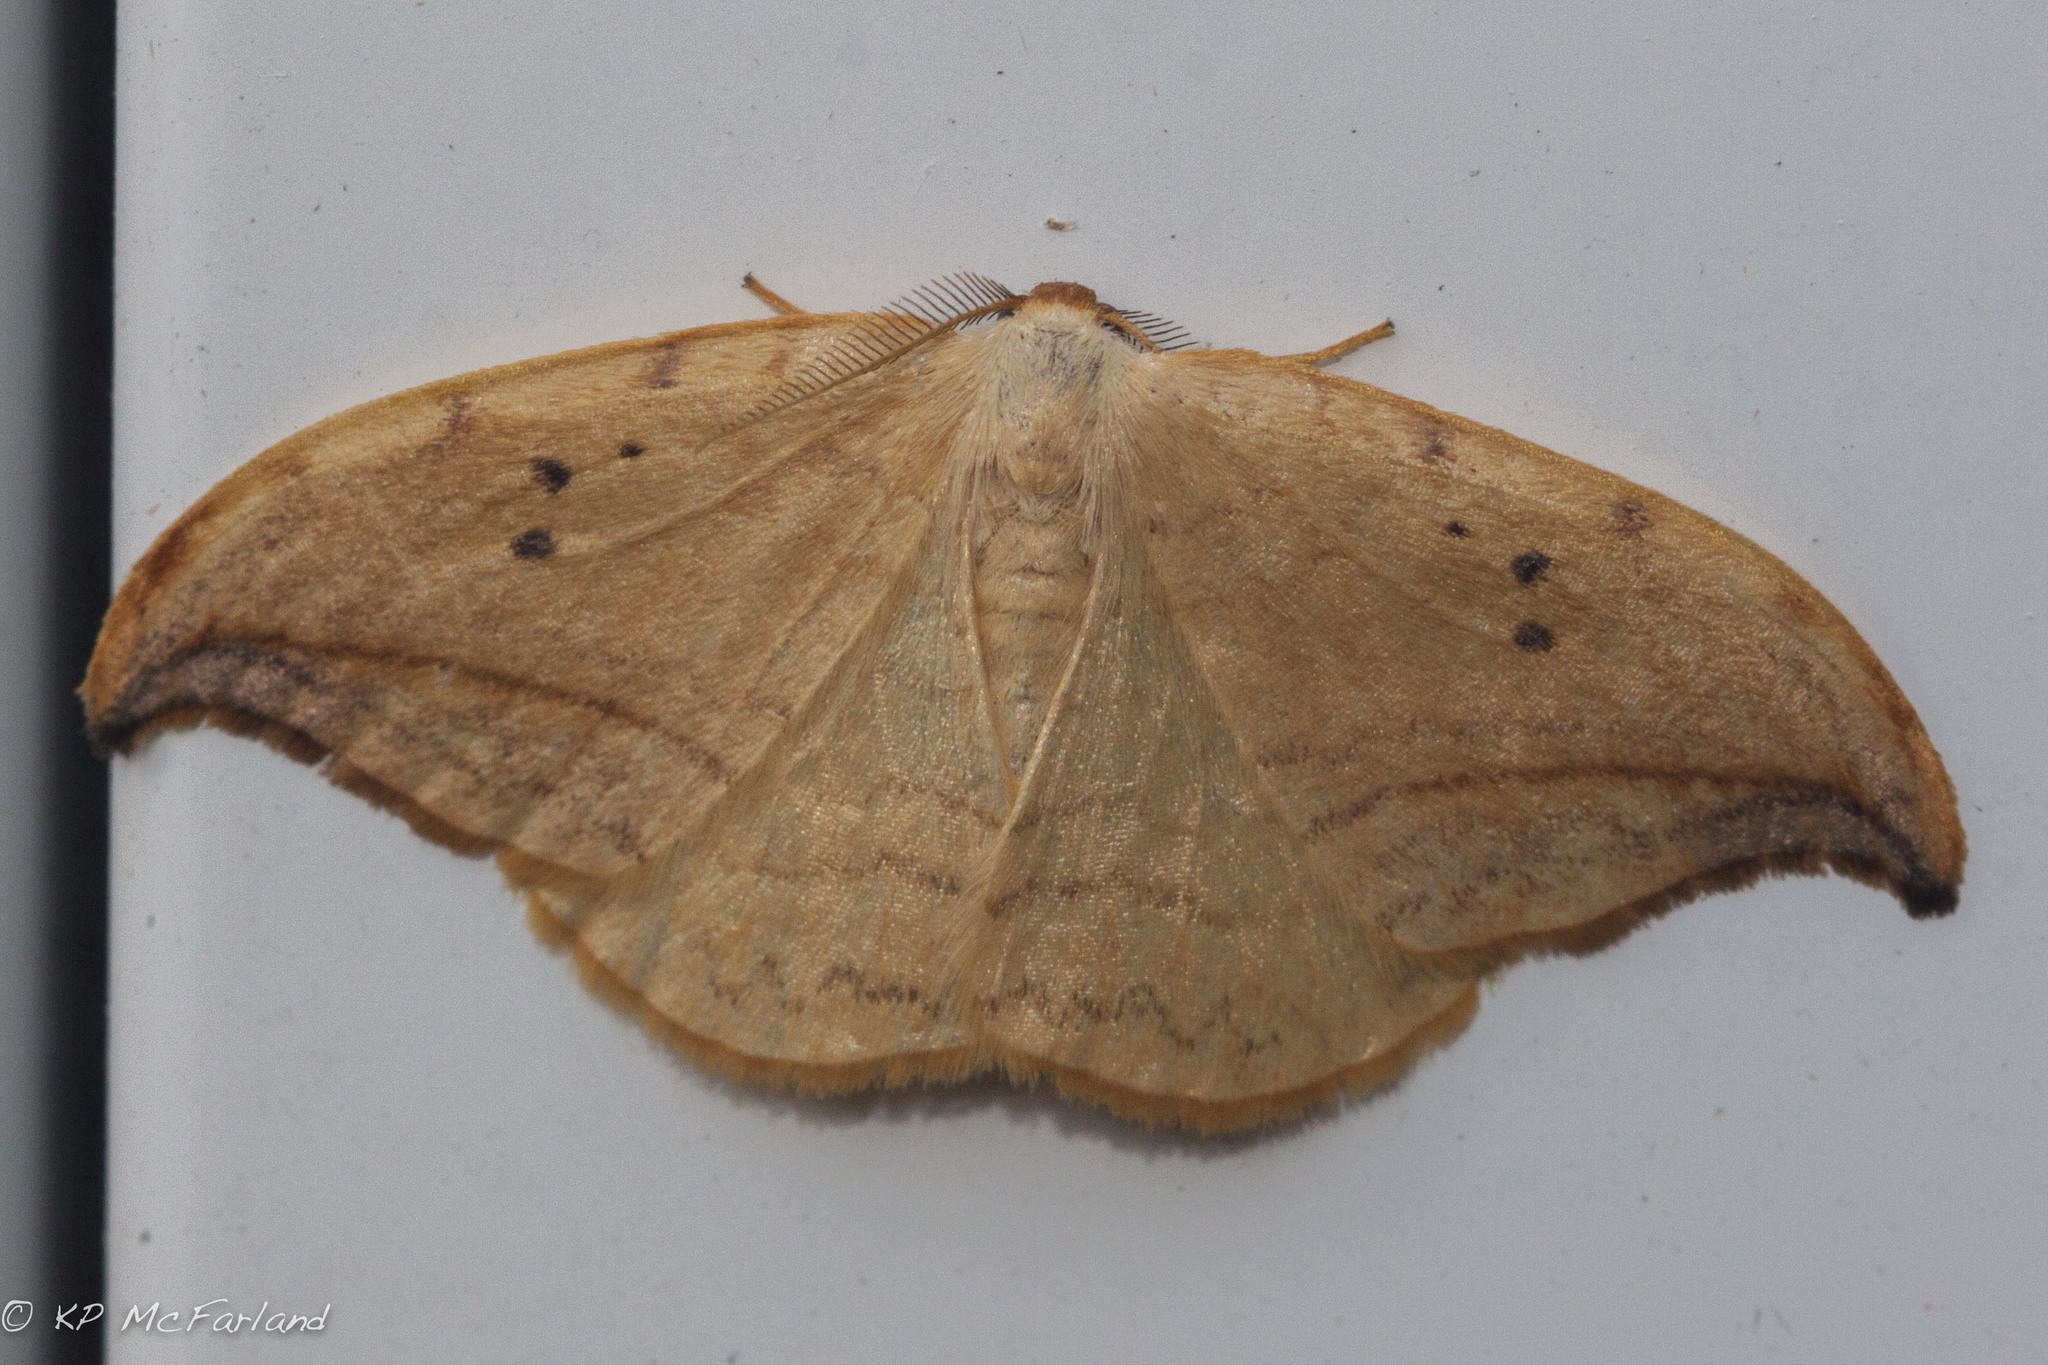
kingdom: Animalia
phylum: Arthropoda
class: Insecta
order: Lepidoptera
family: Drepanidae
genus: Drepana
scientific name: Drepana arcuata
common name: Arched hooktip moth
